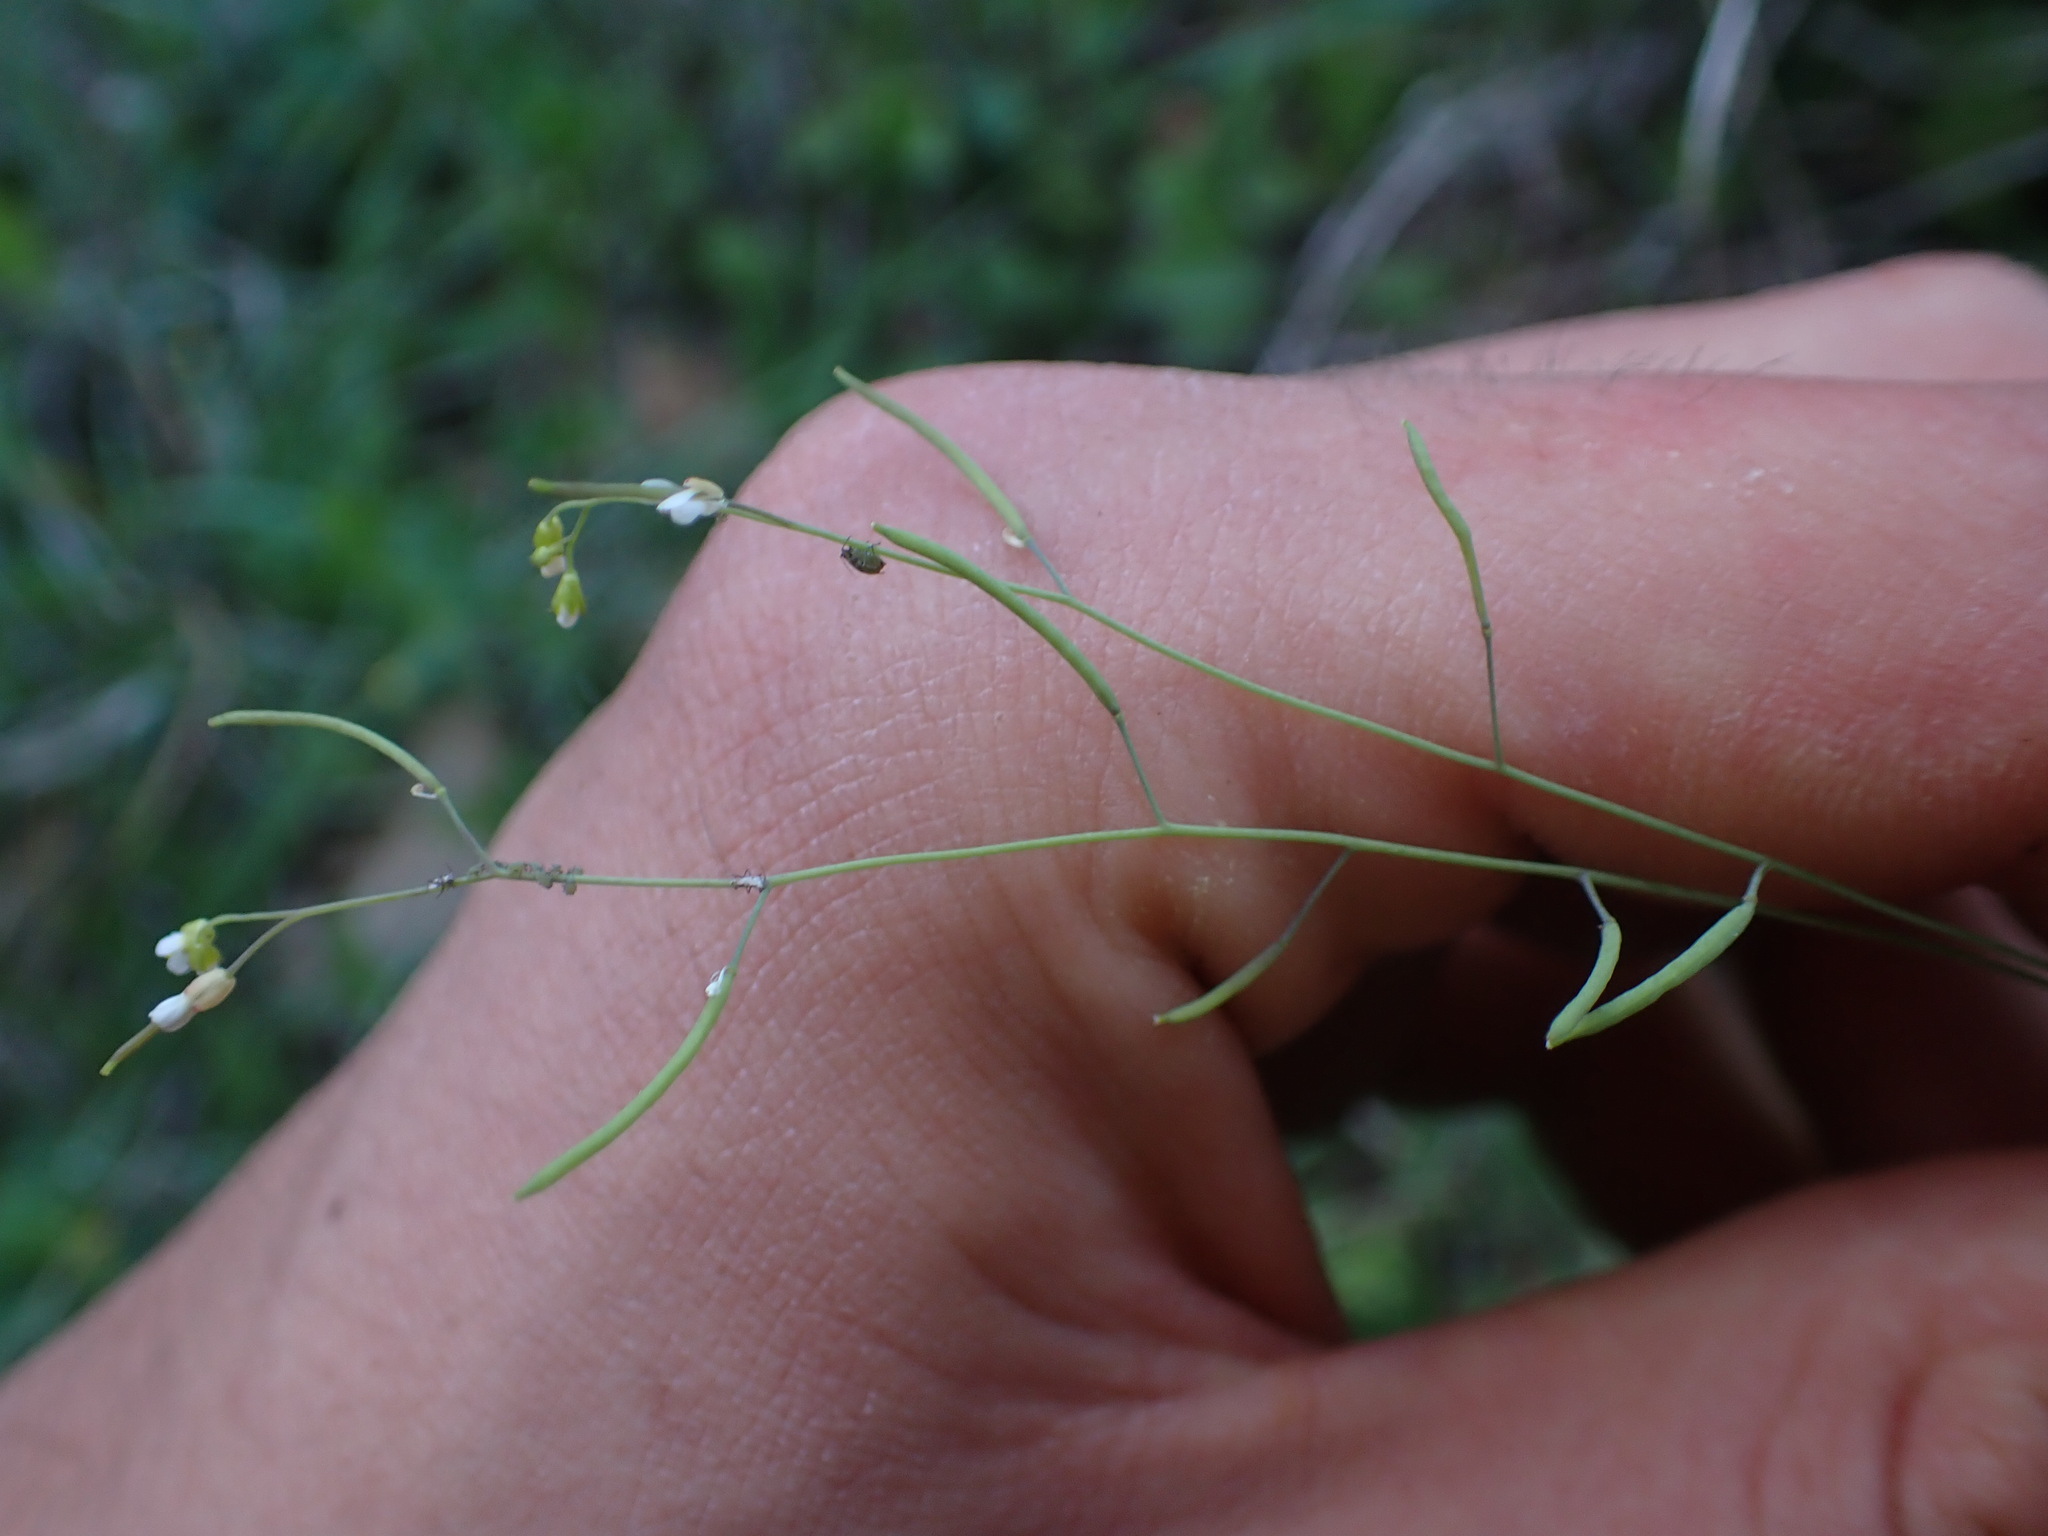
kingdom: Plantae
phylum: Tracheophyta
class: Magnoliopsida
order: Brassicales
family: Brassicaceae
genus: Arabidopsis
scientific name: Arabidopsis thaliana
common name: Thale cress
